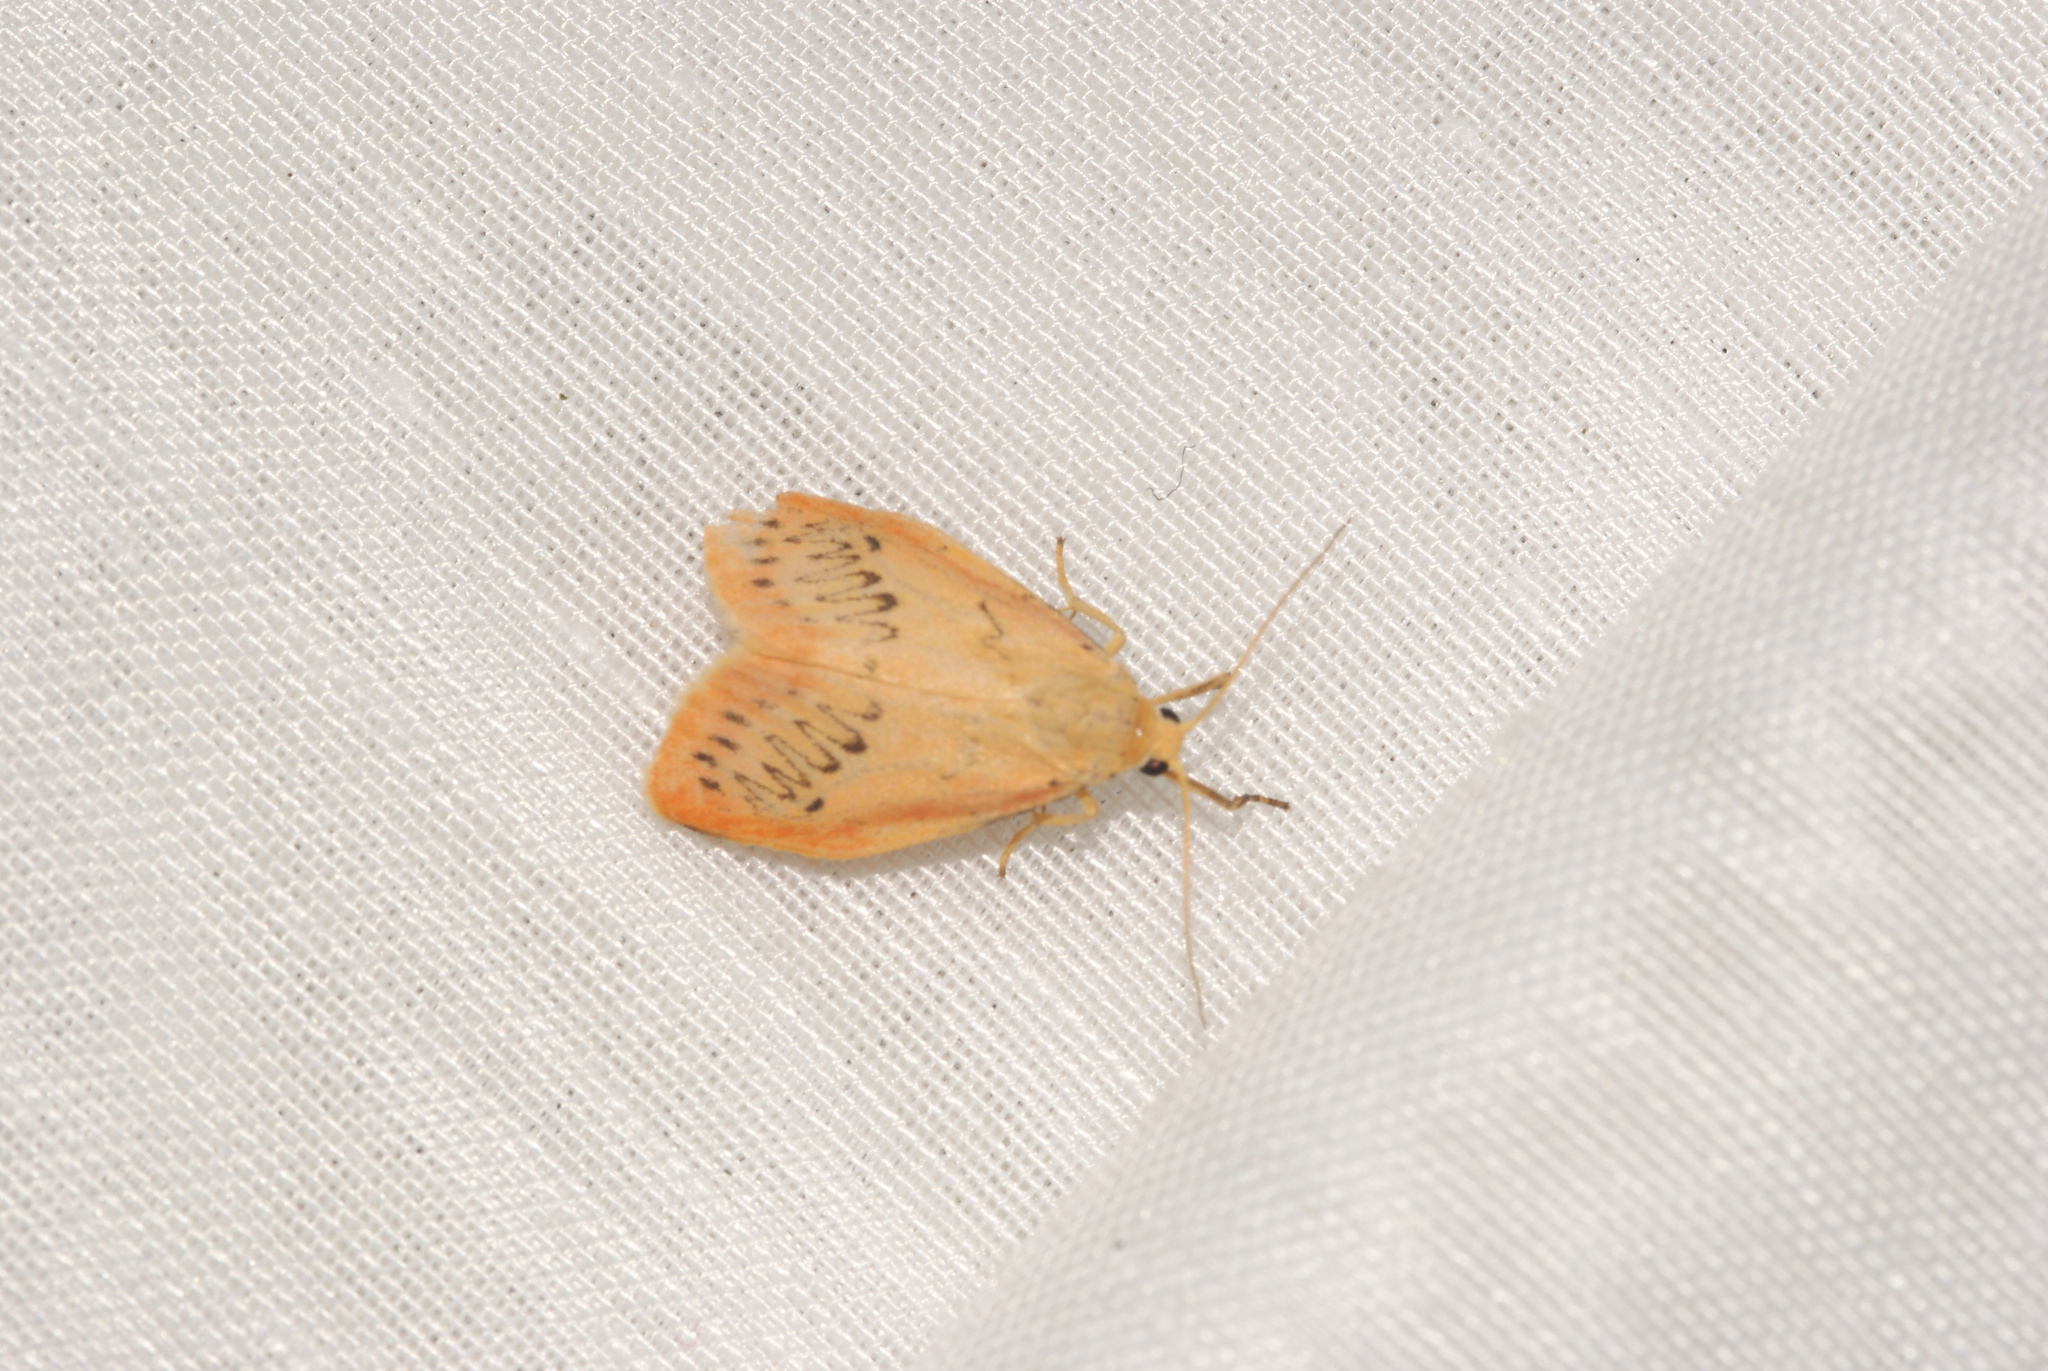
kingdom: Animalia
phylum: Arthropoda
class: Insecta
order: Lepidoptera
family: Erebidae
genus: Miltochrista
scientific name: Miltochrista miniata
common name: Rosy footman
